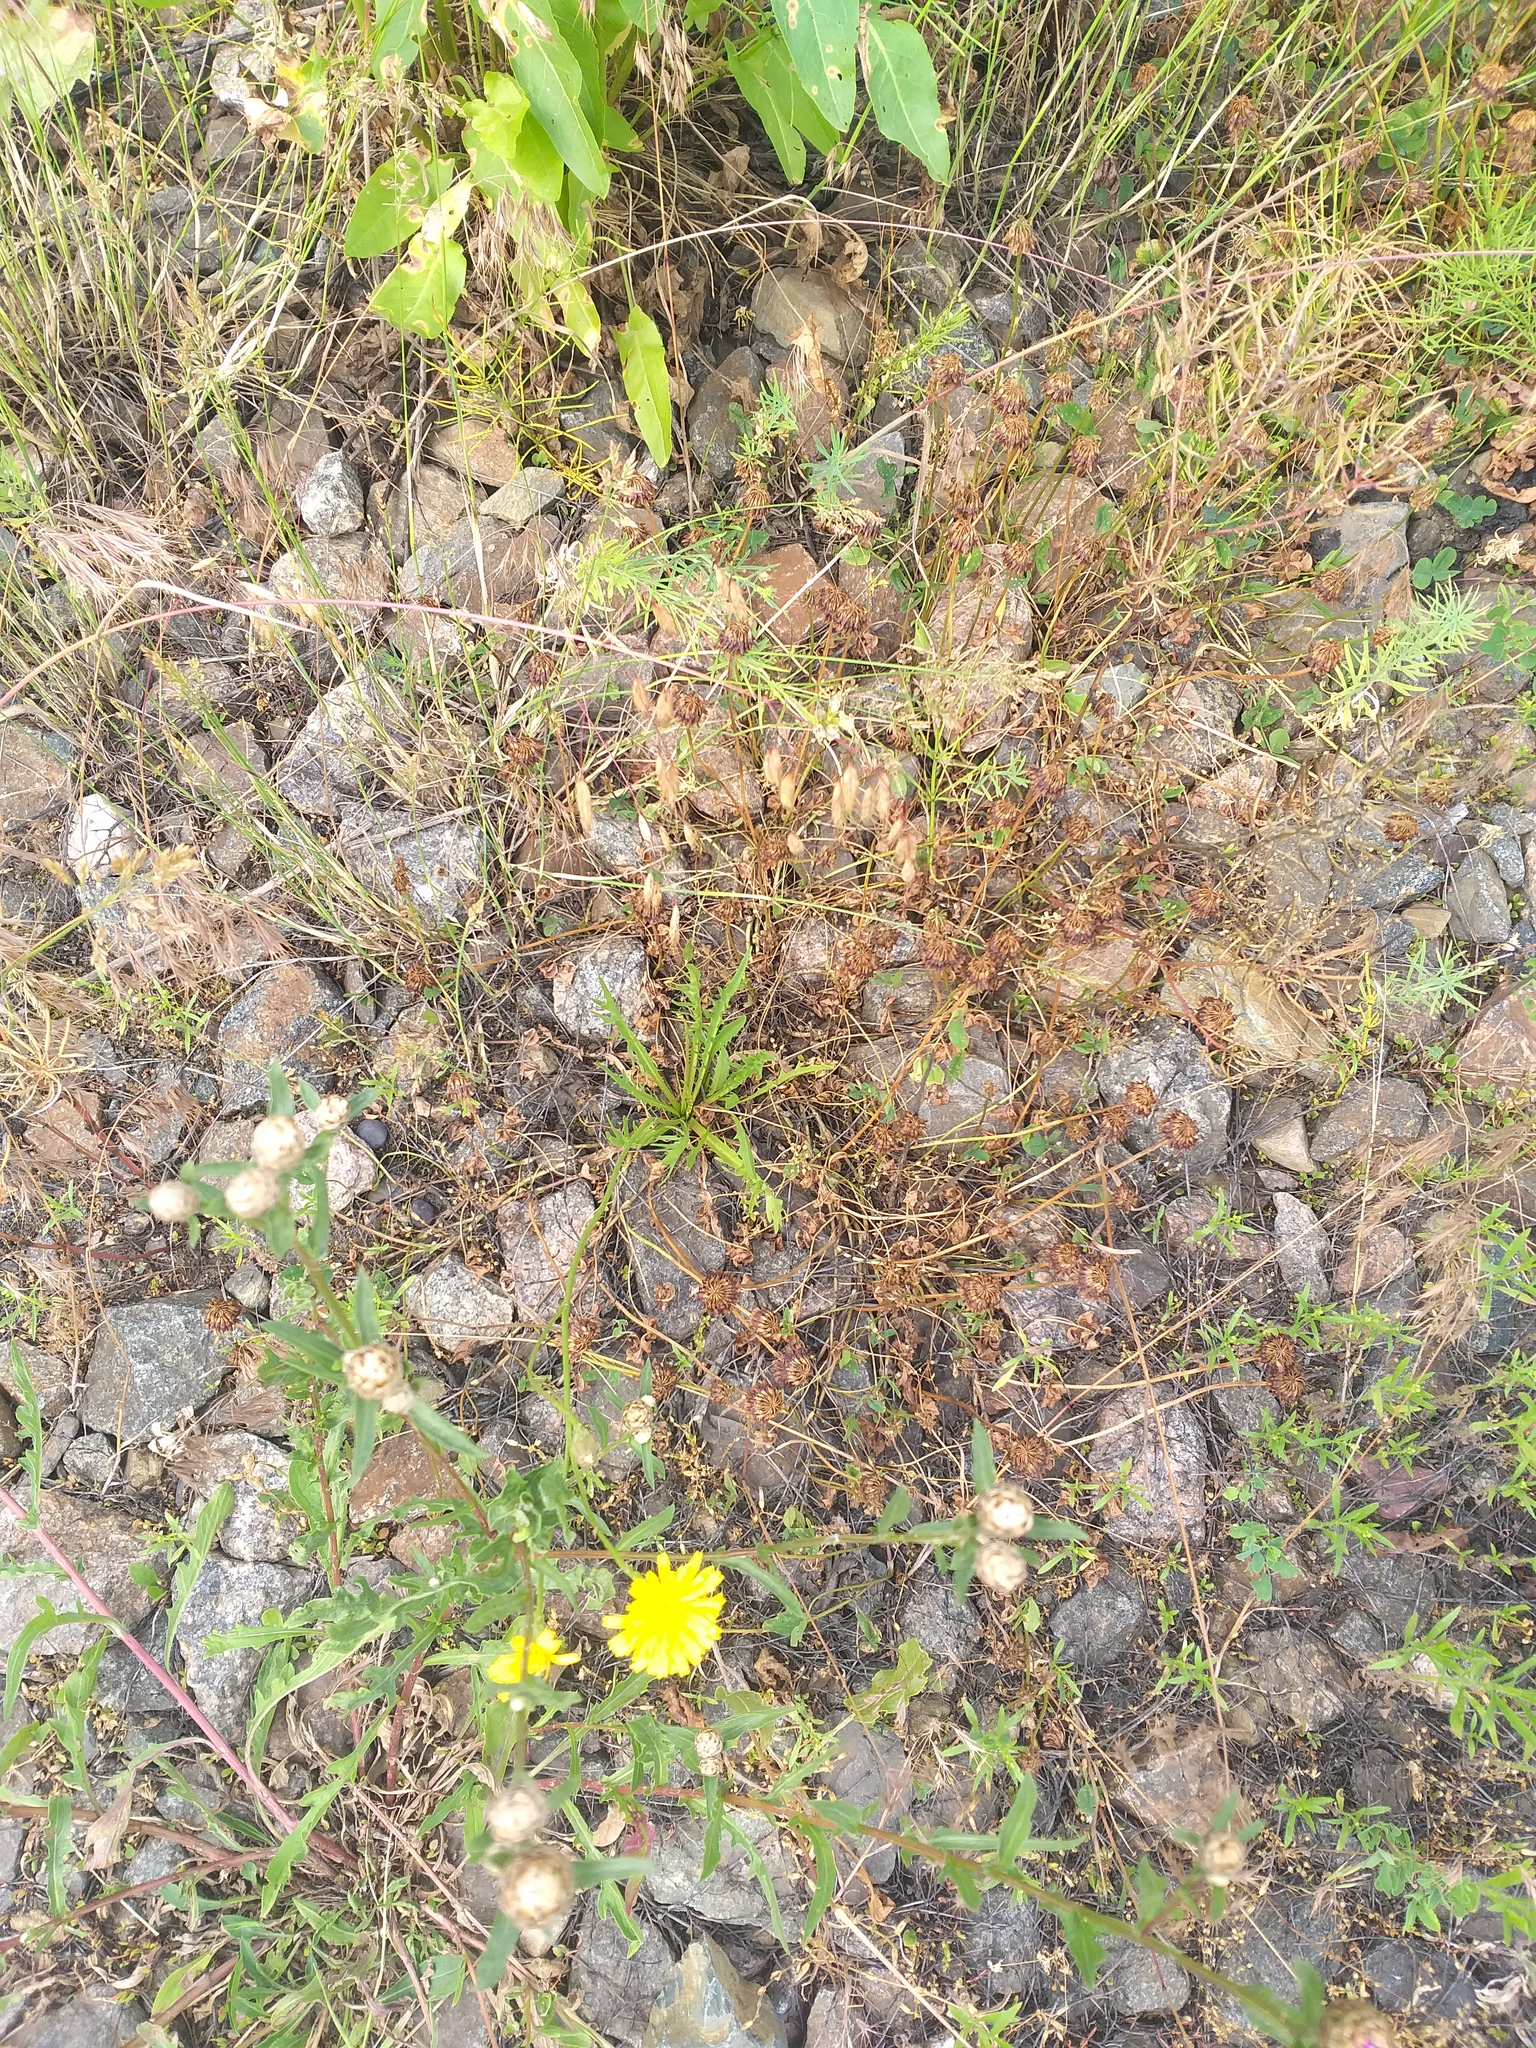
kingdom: Plantae
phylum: Tracheophyta
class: Magnoliopsida
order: Asterales
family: Asteraceae
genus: Scorzoneroides
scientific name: Scorzoneroides autumnalis
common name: Autumn hawkbit
